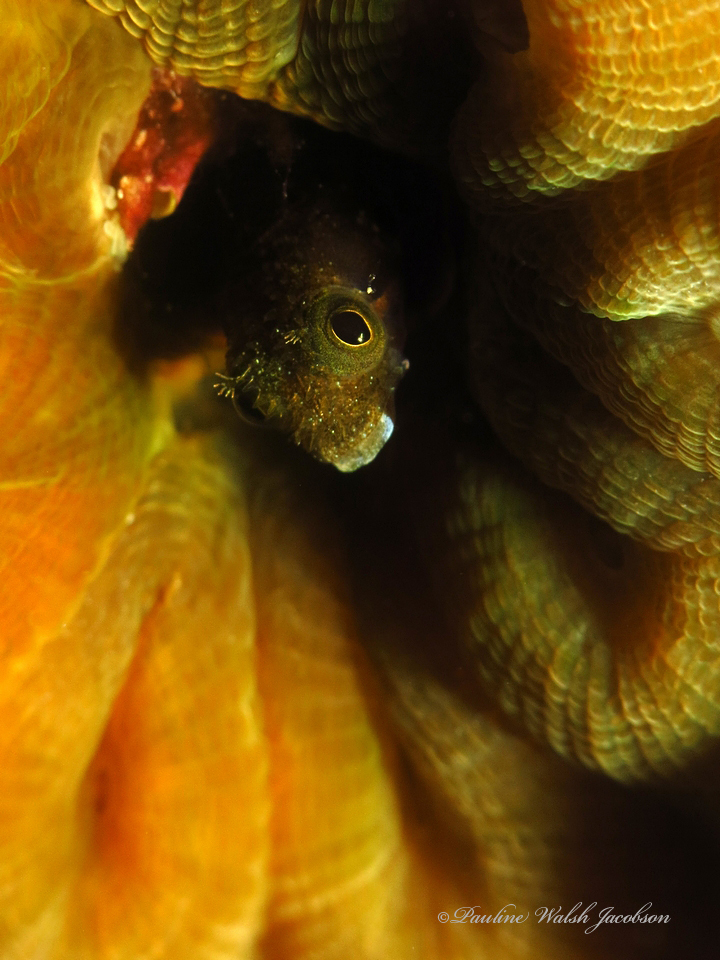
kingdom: Animalia
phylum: Chordata
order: Perciformes
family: Chaenopsidae
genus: Acanthemblemaria
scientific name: Acanthemblemaria spinosa
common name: Spinyhead blenny
